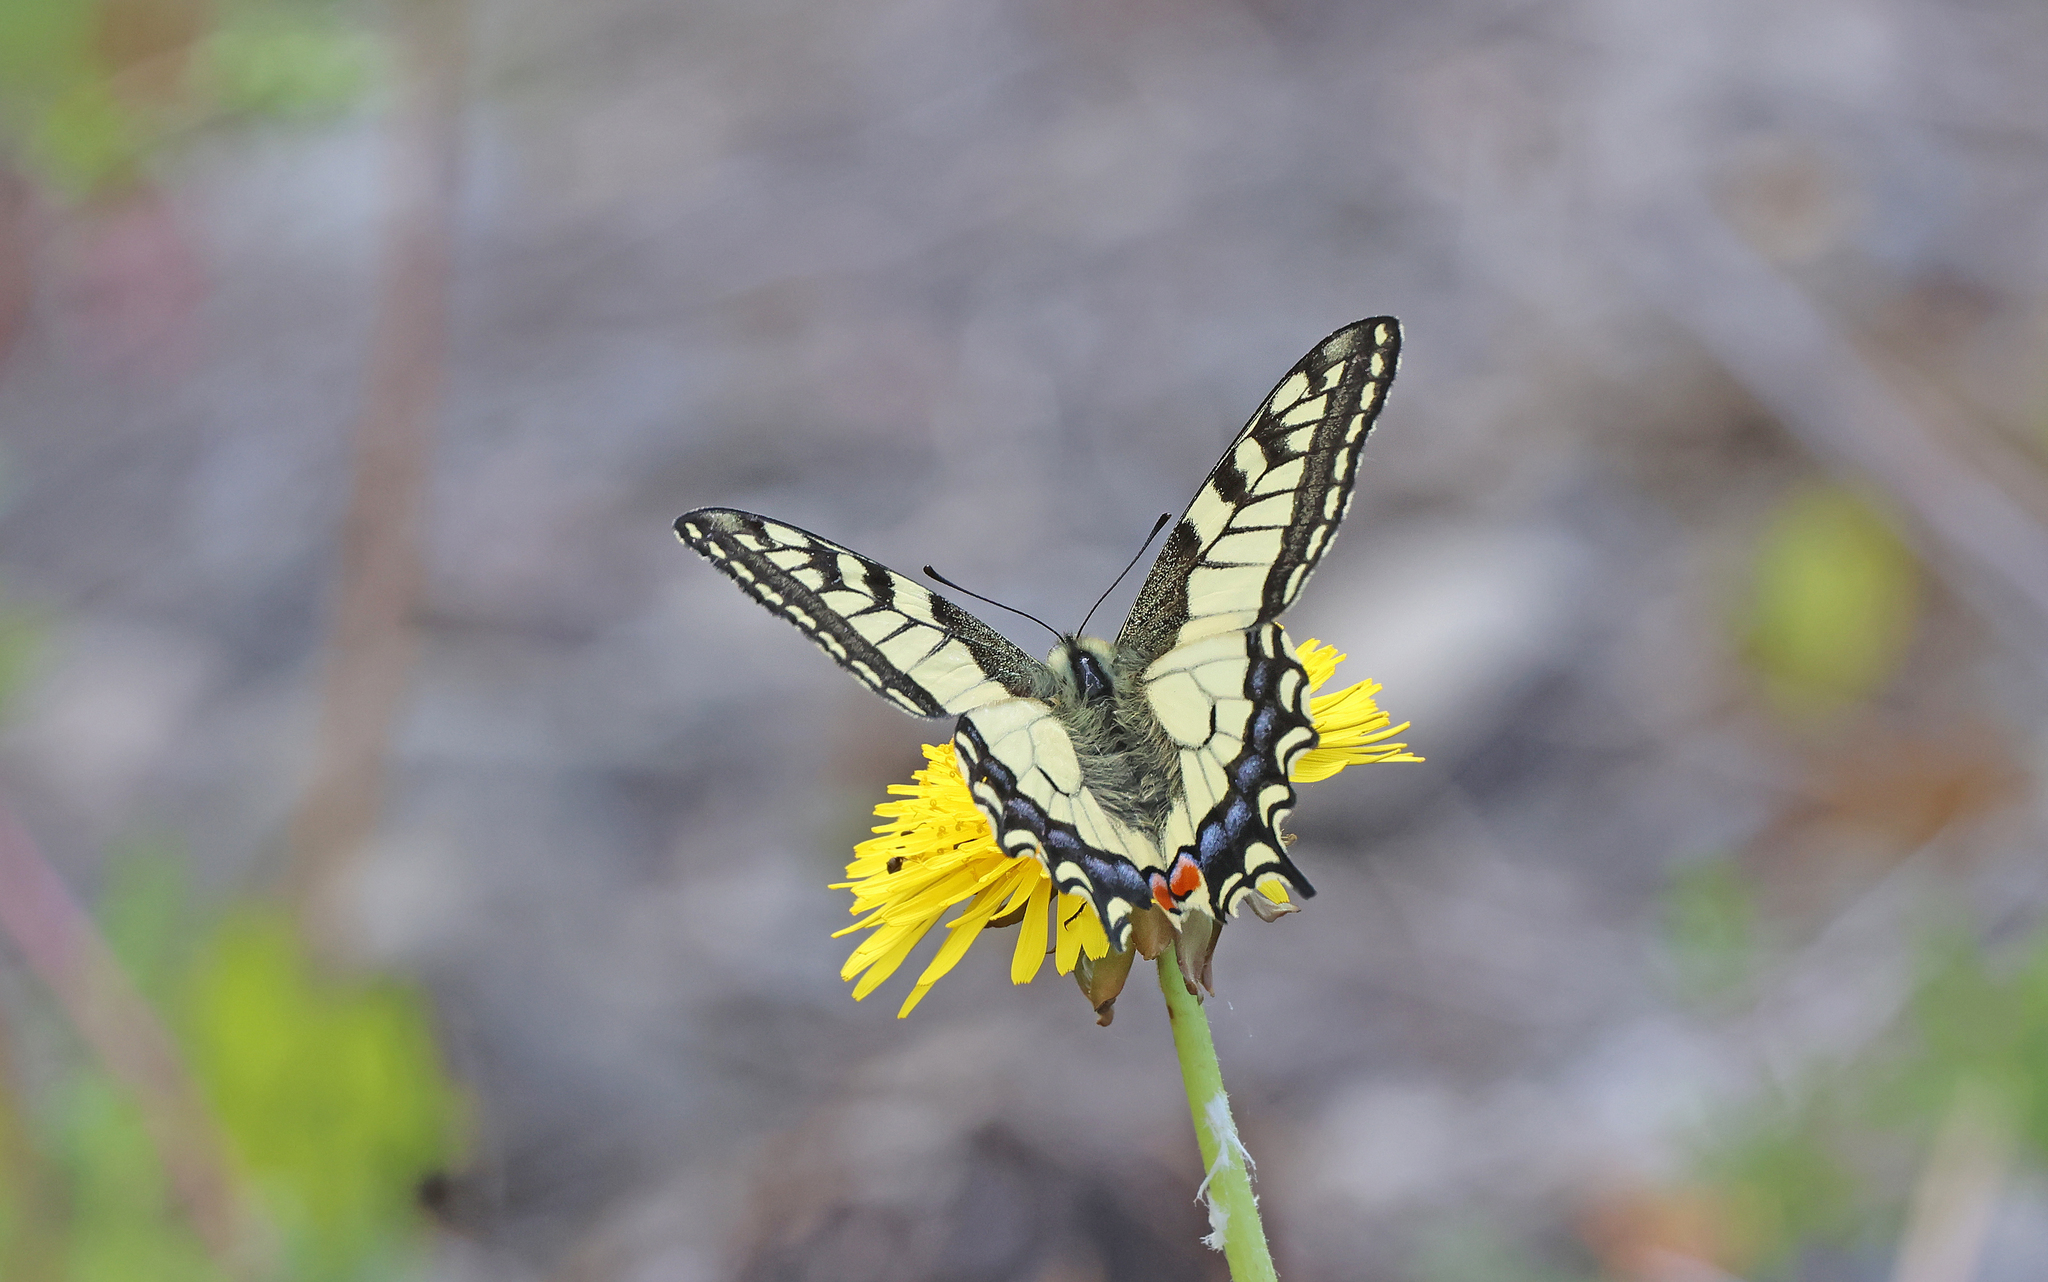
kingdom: Animalia
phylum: Arthropoda
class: Insecta
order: Lepidoptera
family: Papilionidae
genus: Papilio
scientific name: Papilio machaon
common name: Swallowtail
